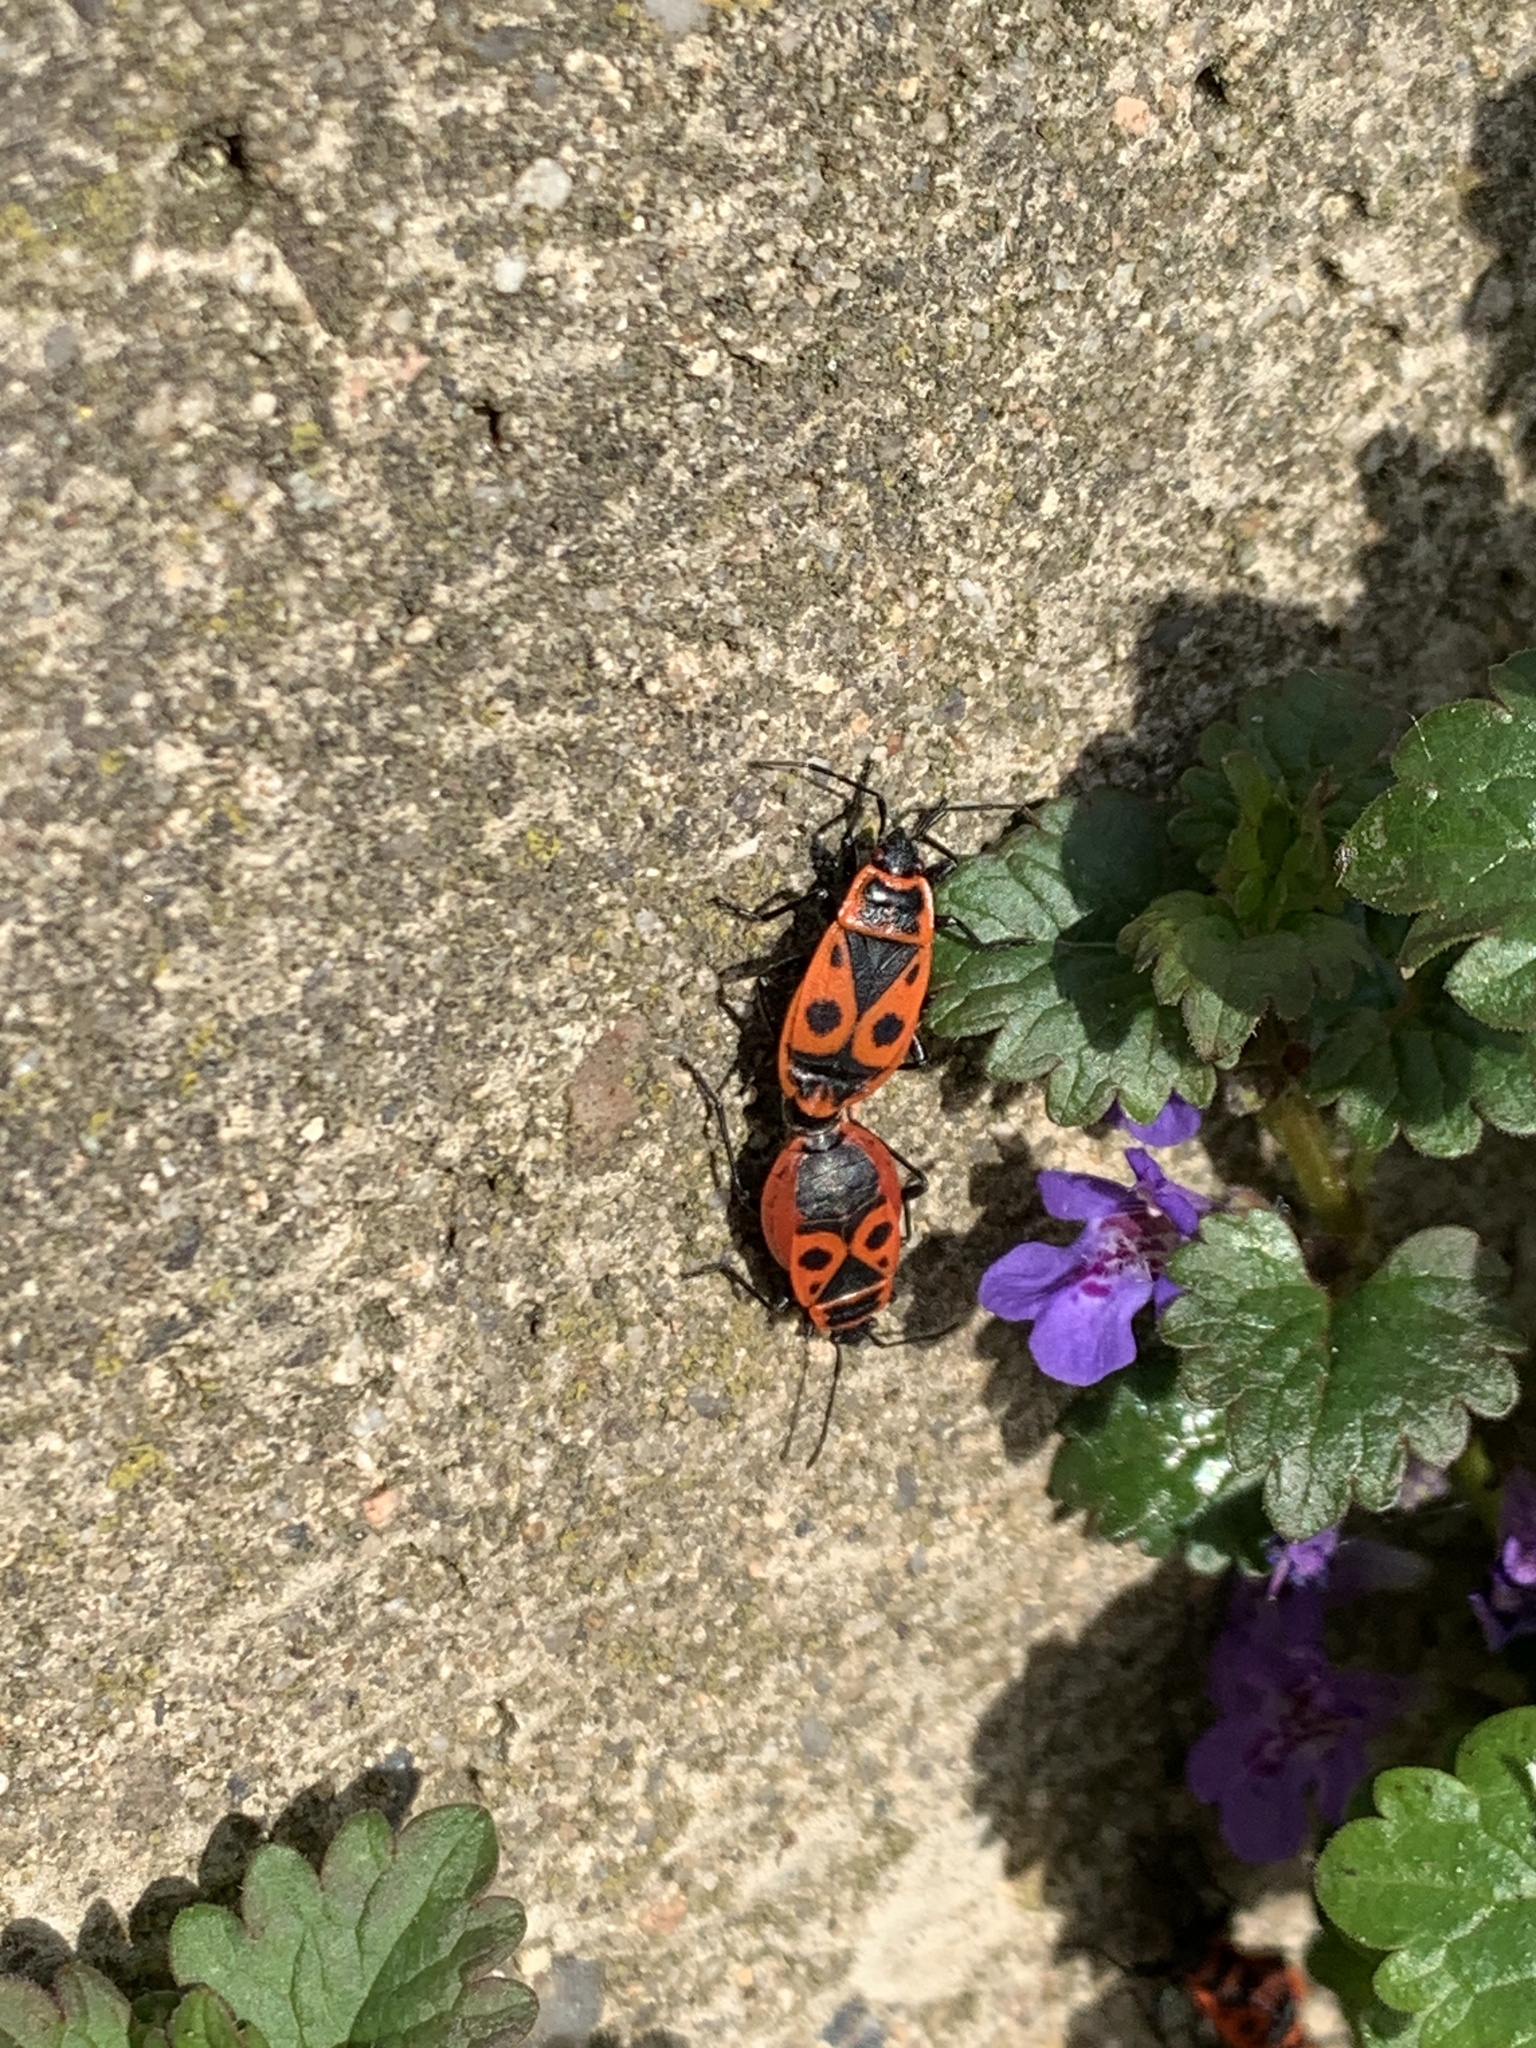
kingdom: Animalia
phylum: Arthropoda
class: Insecta
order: Hemiptera
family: Pyrrhocoridae
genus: Pyrrhocoris
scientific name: Pyrrhocoris apterus
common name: Firebug
